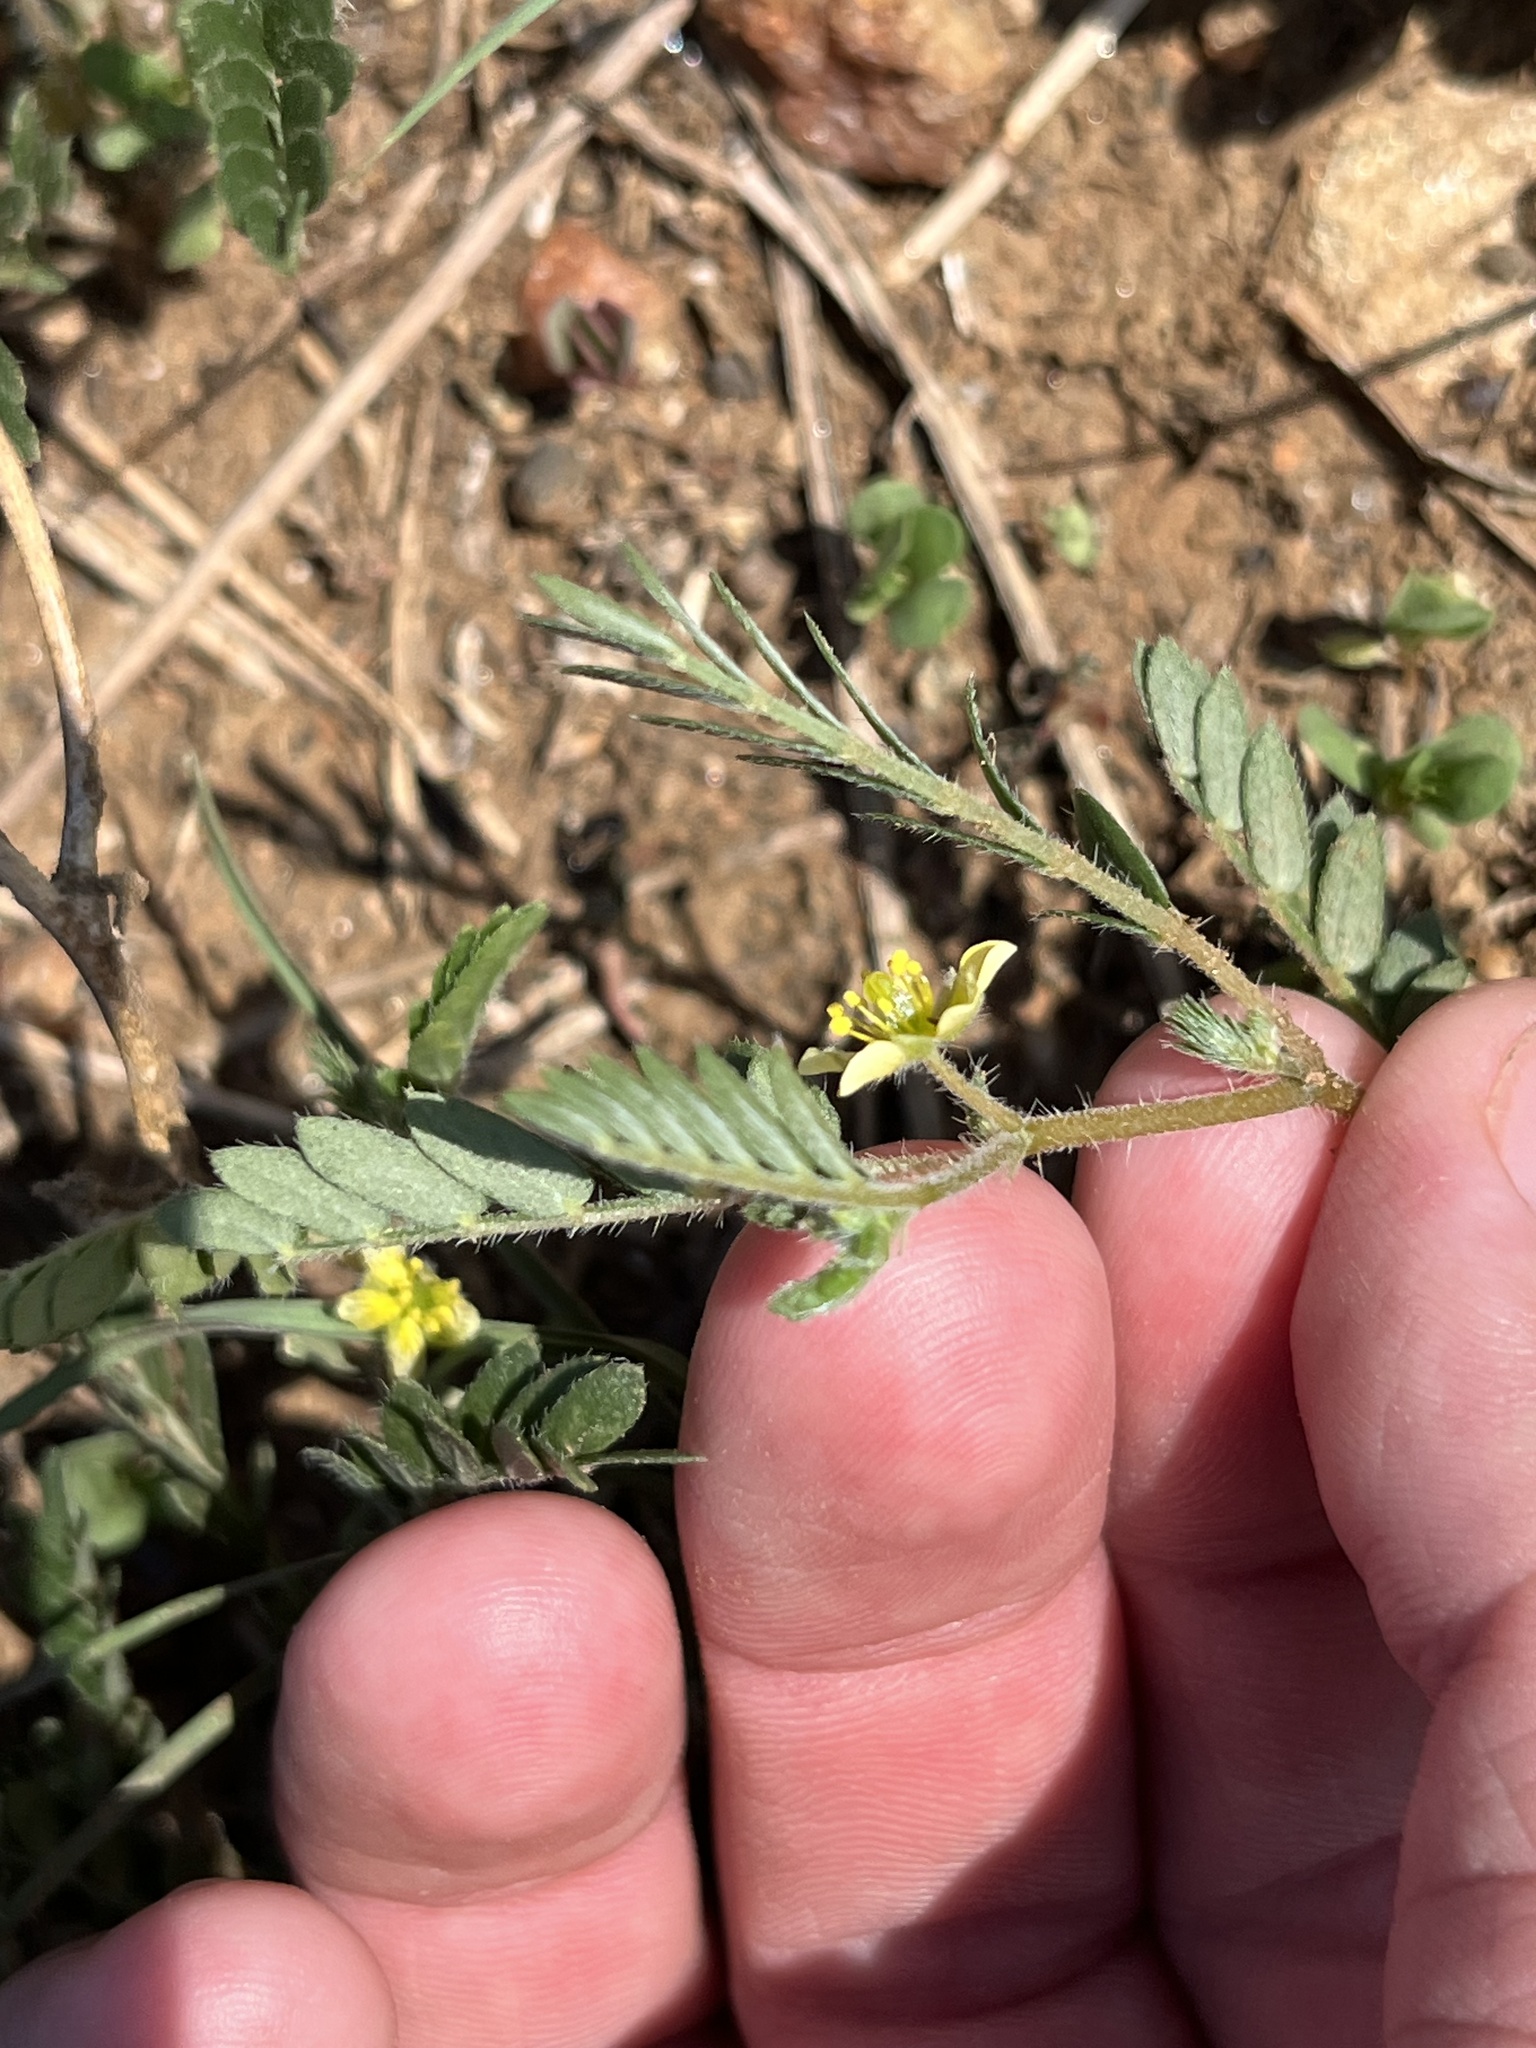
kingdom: Plantae
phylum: Tracheophyta
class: Magnoliopsida
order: Zygophyllales
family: Zygophyllaceae
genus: Tribulus
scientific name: Tribulus terrestris
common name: Puncturevine
